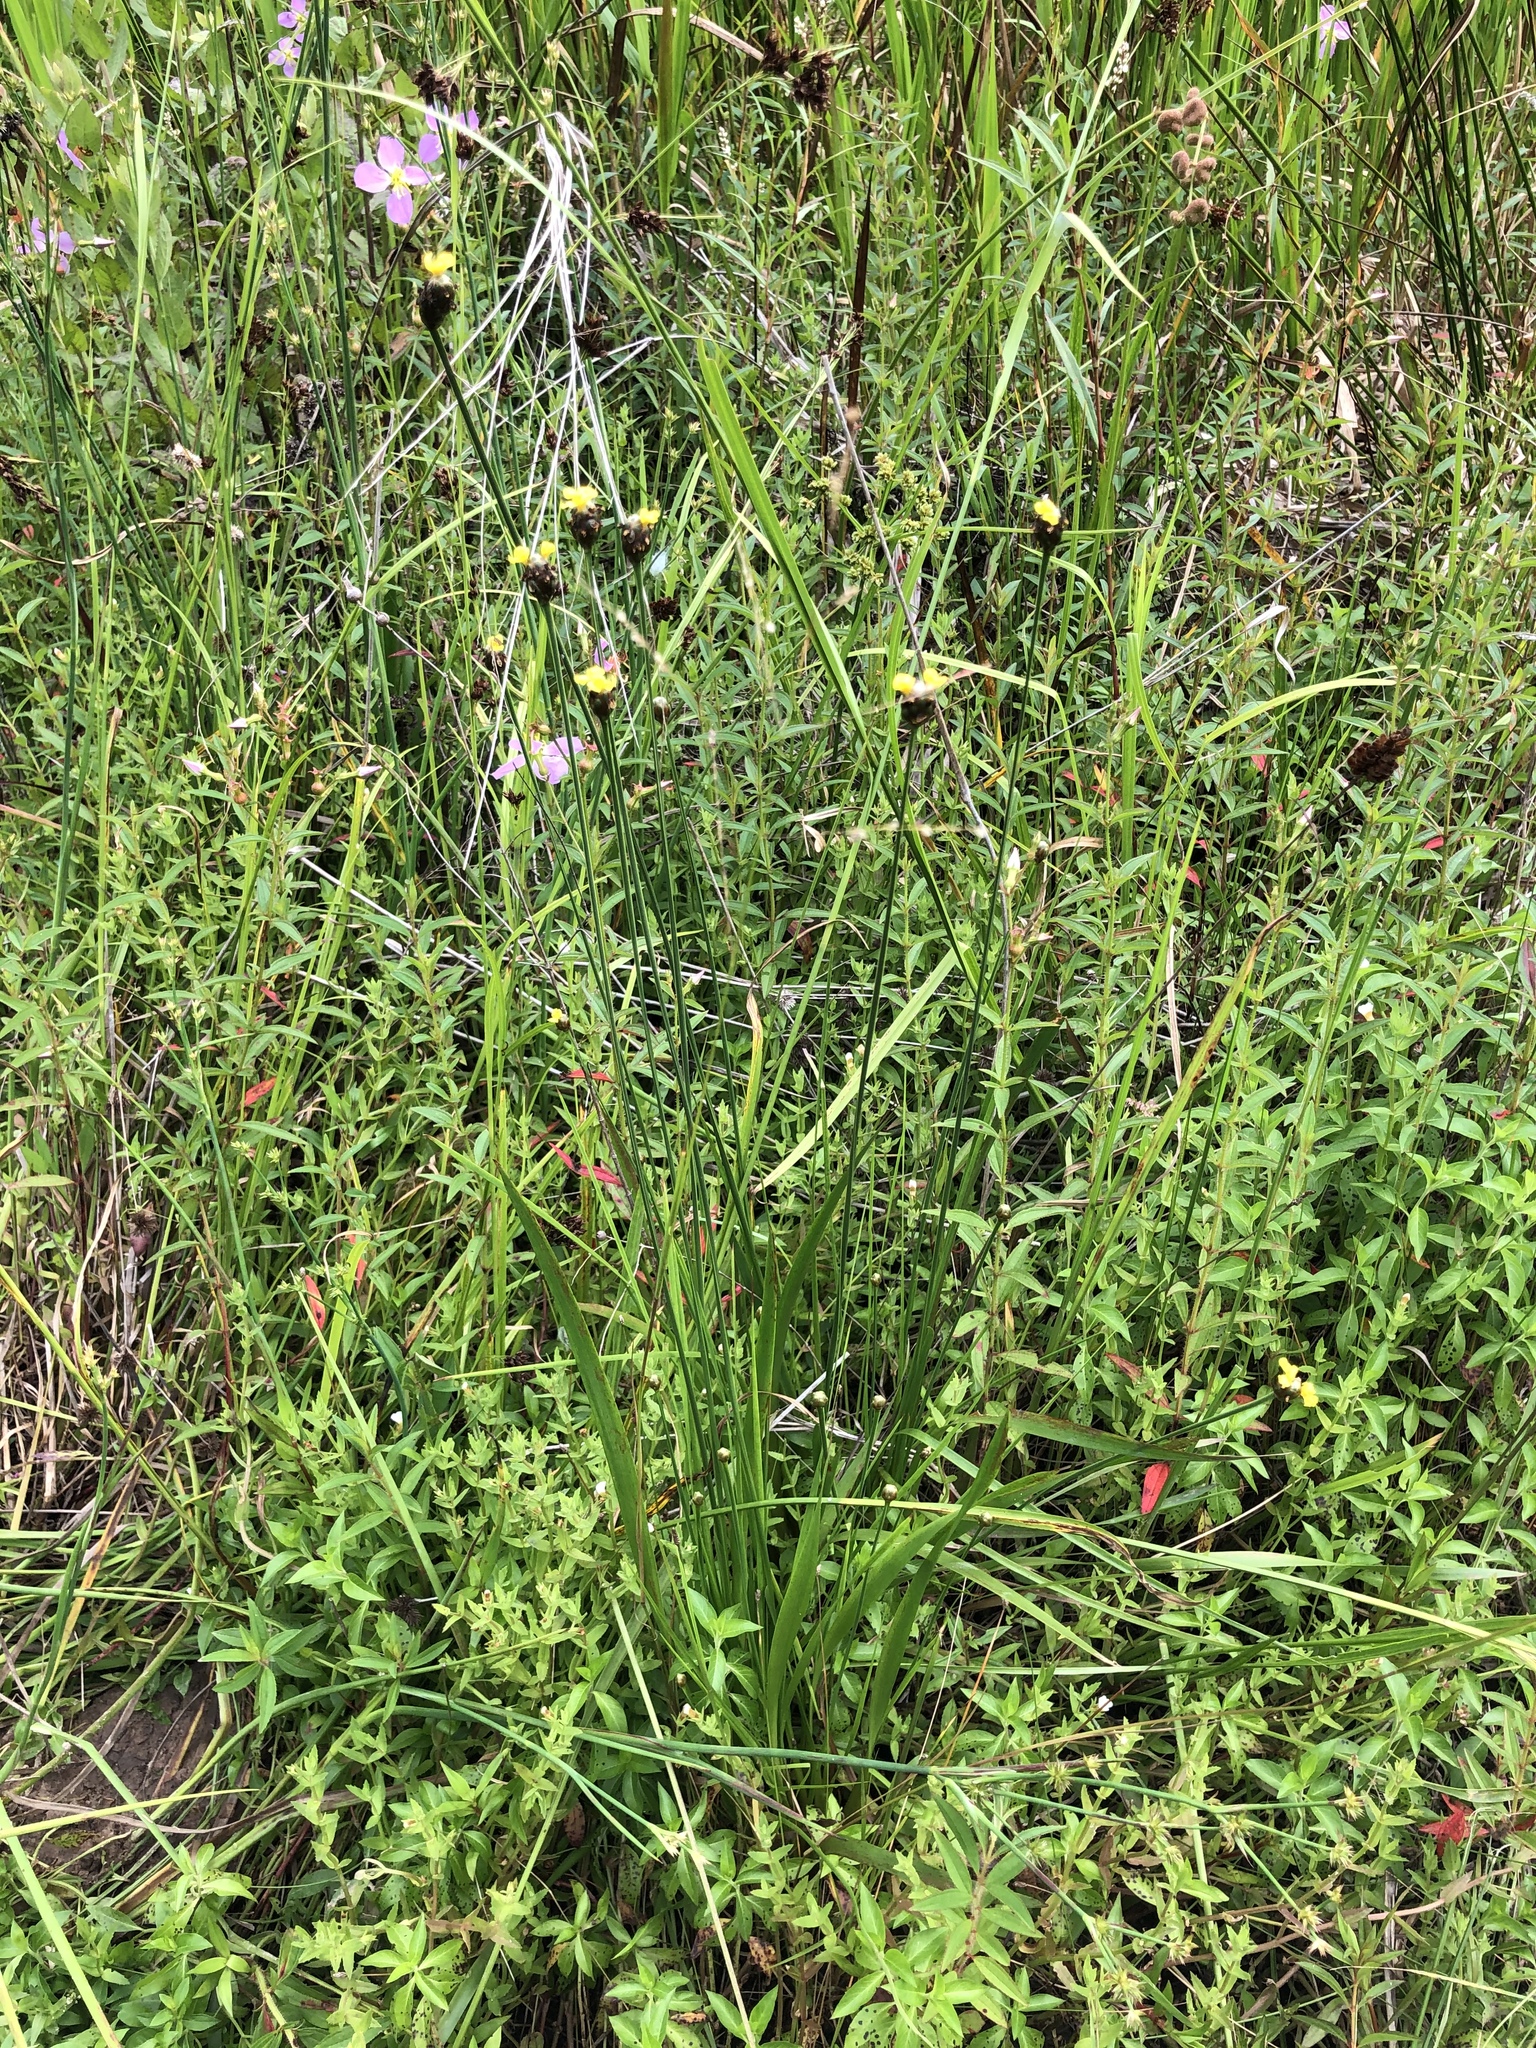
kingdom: Plantae
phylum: Tracheophyta
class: Liliopsida
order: Poales
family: Xyridaceae
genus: Xyris
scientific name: Xyris difformis
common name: Bog yellow-eyed-grass
